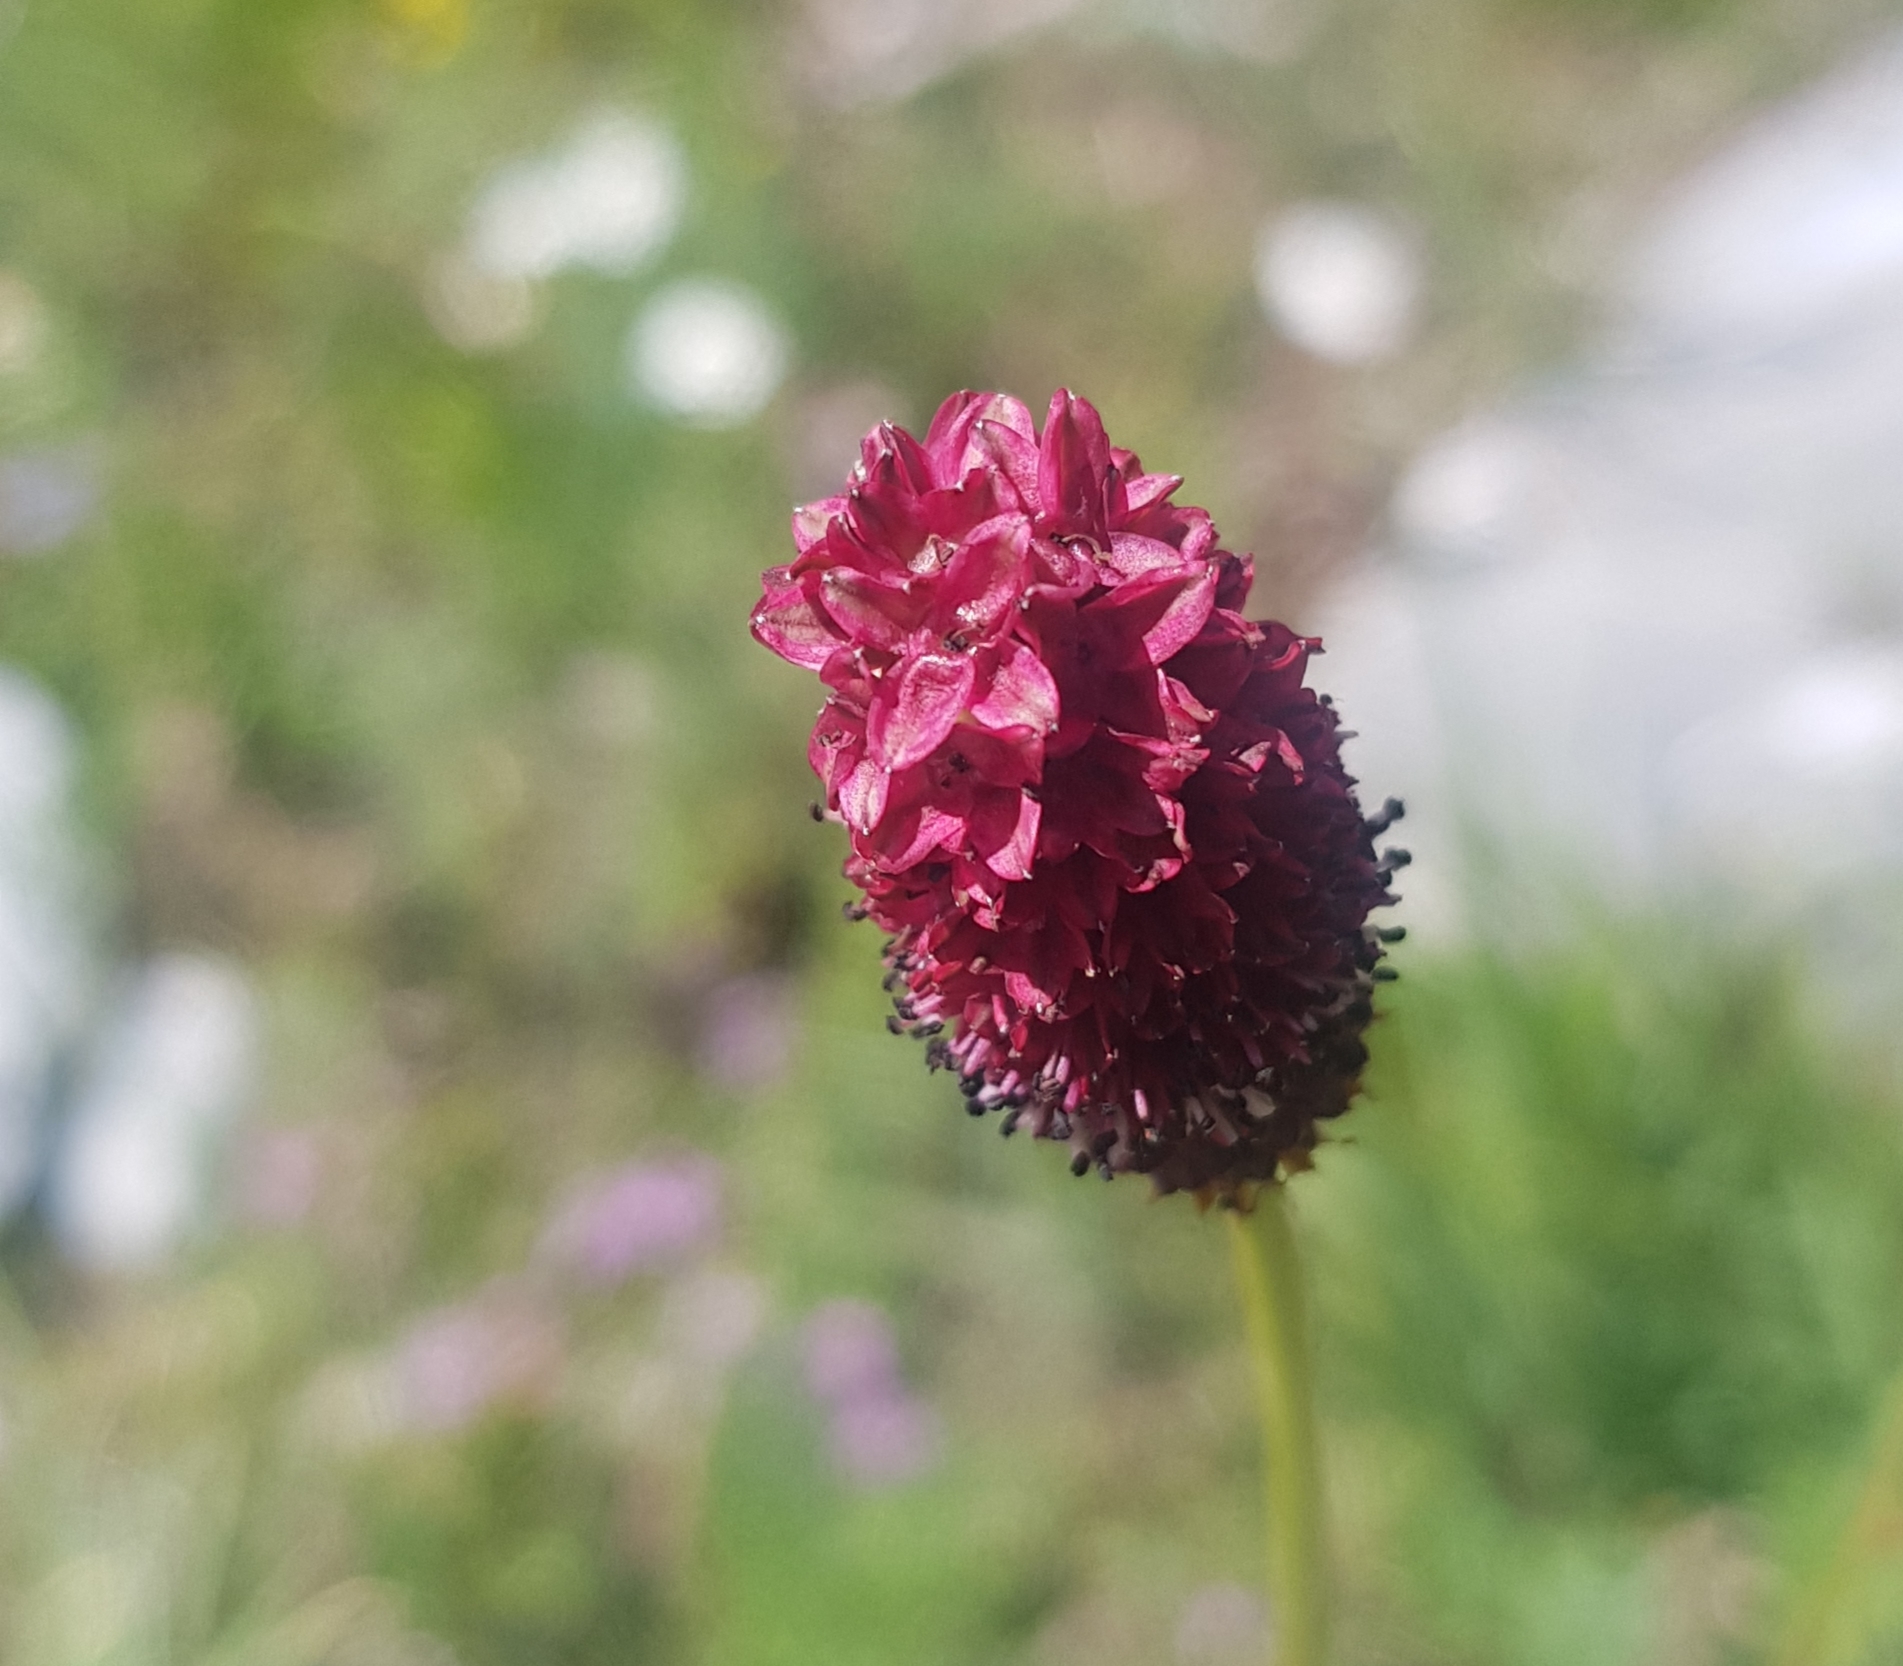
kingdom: Plantae
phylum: Tracheophyta
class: Magnoliopsida
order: Rosales
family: Rosaceae
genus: Sanguisorba
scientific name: Sanguisorba officinalis
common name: Great burnet
